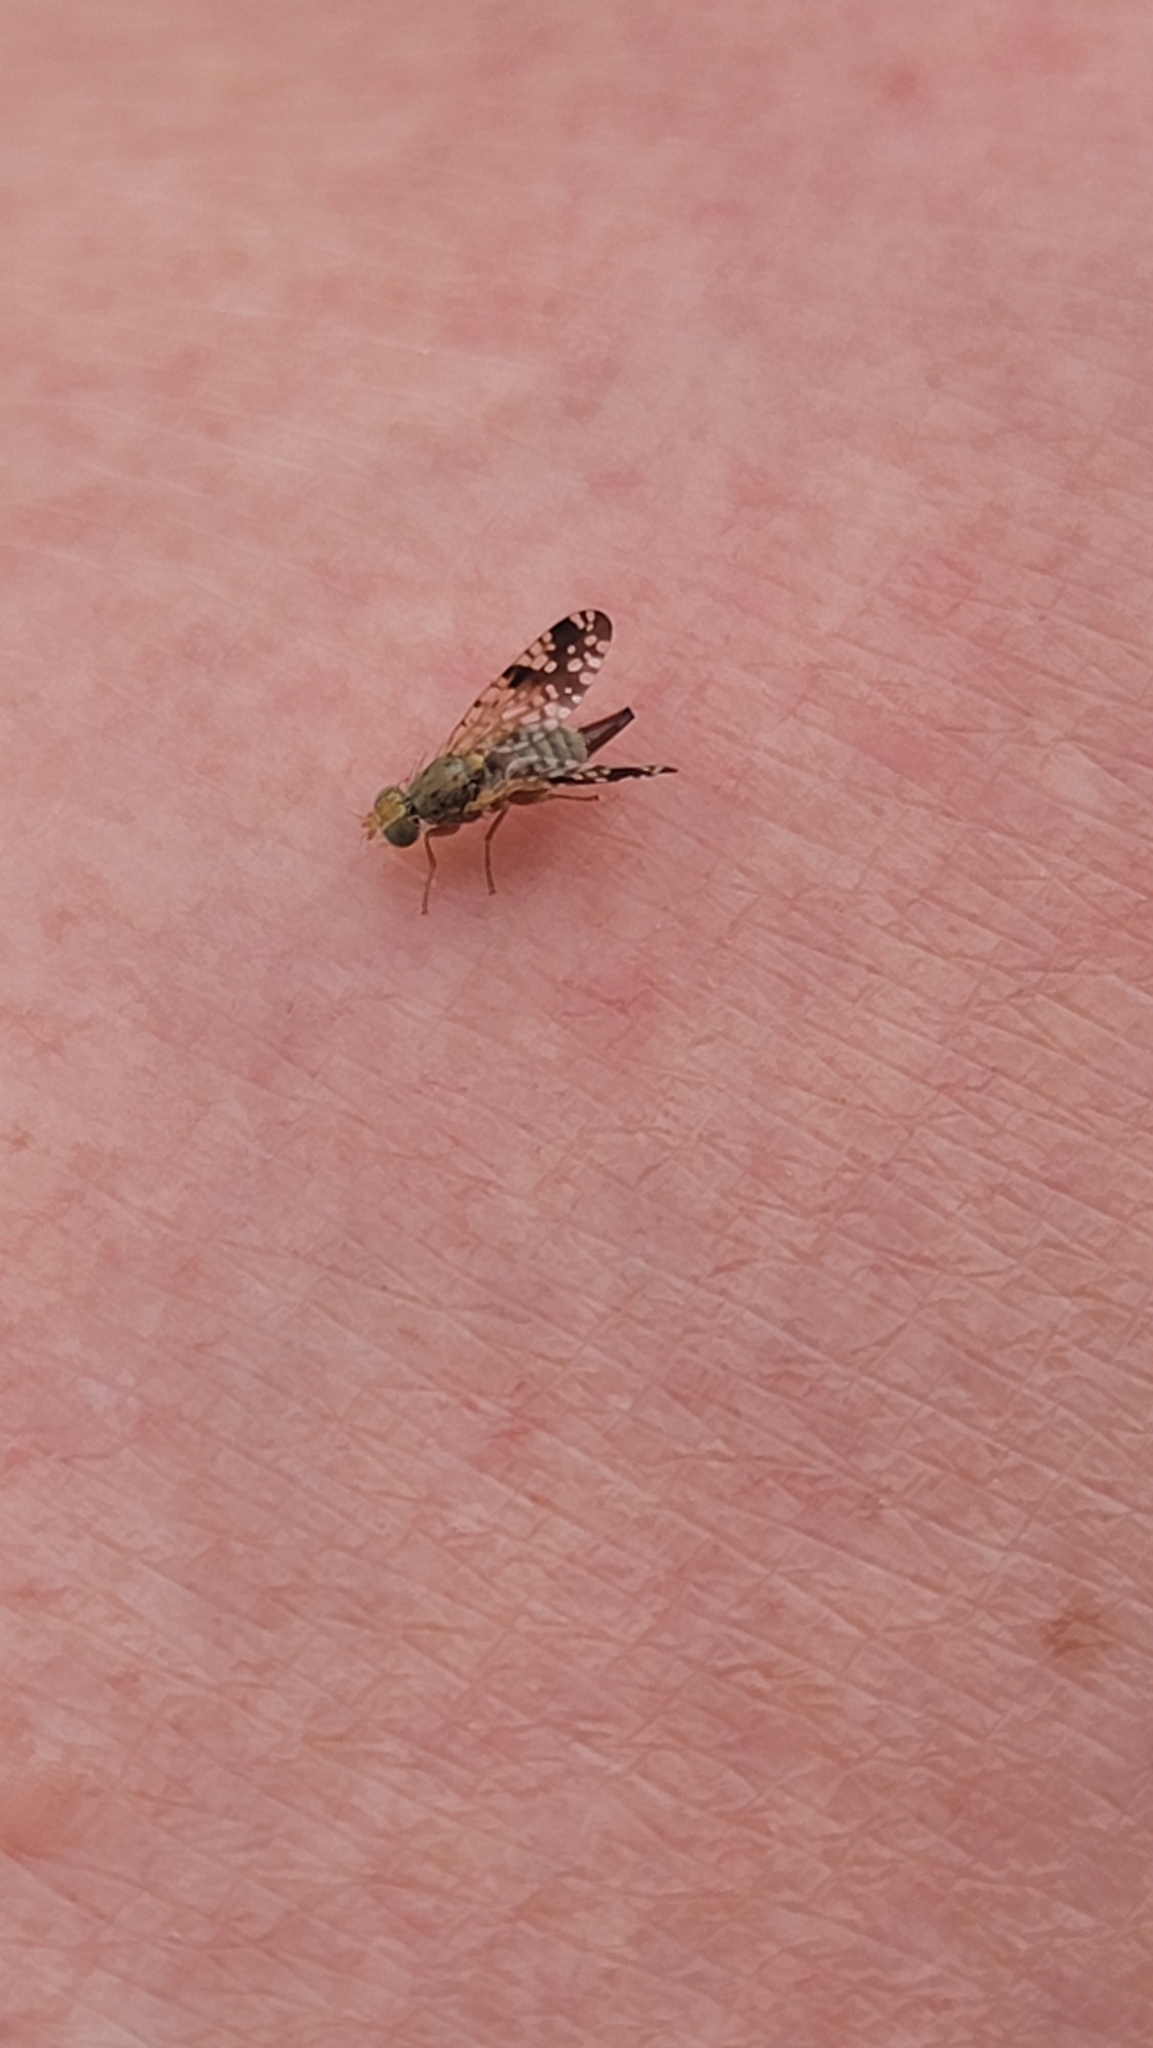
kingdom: Animalia
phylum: Arthropoda
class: Insecta
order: Diptera
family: Tephritidae
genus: Neotephritis
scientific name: Neotephritis finalis
